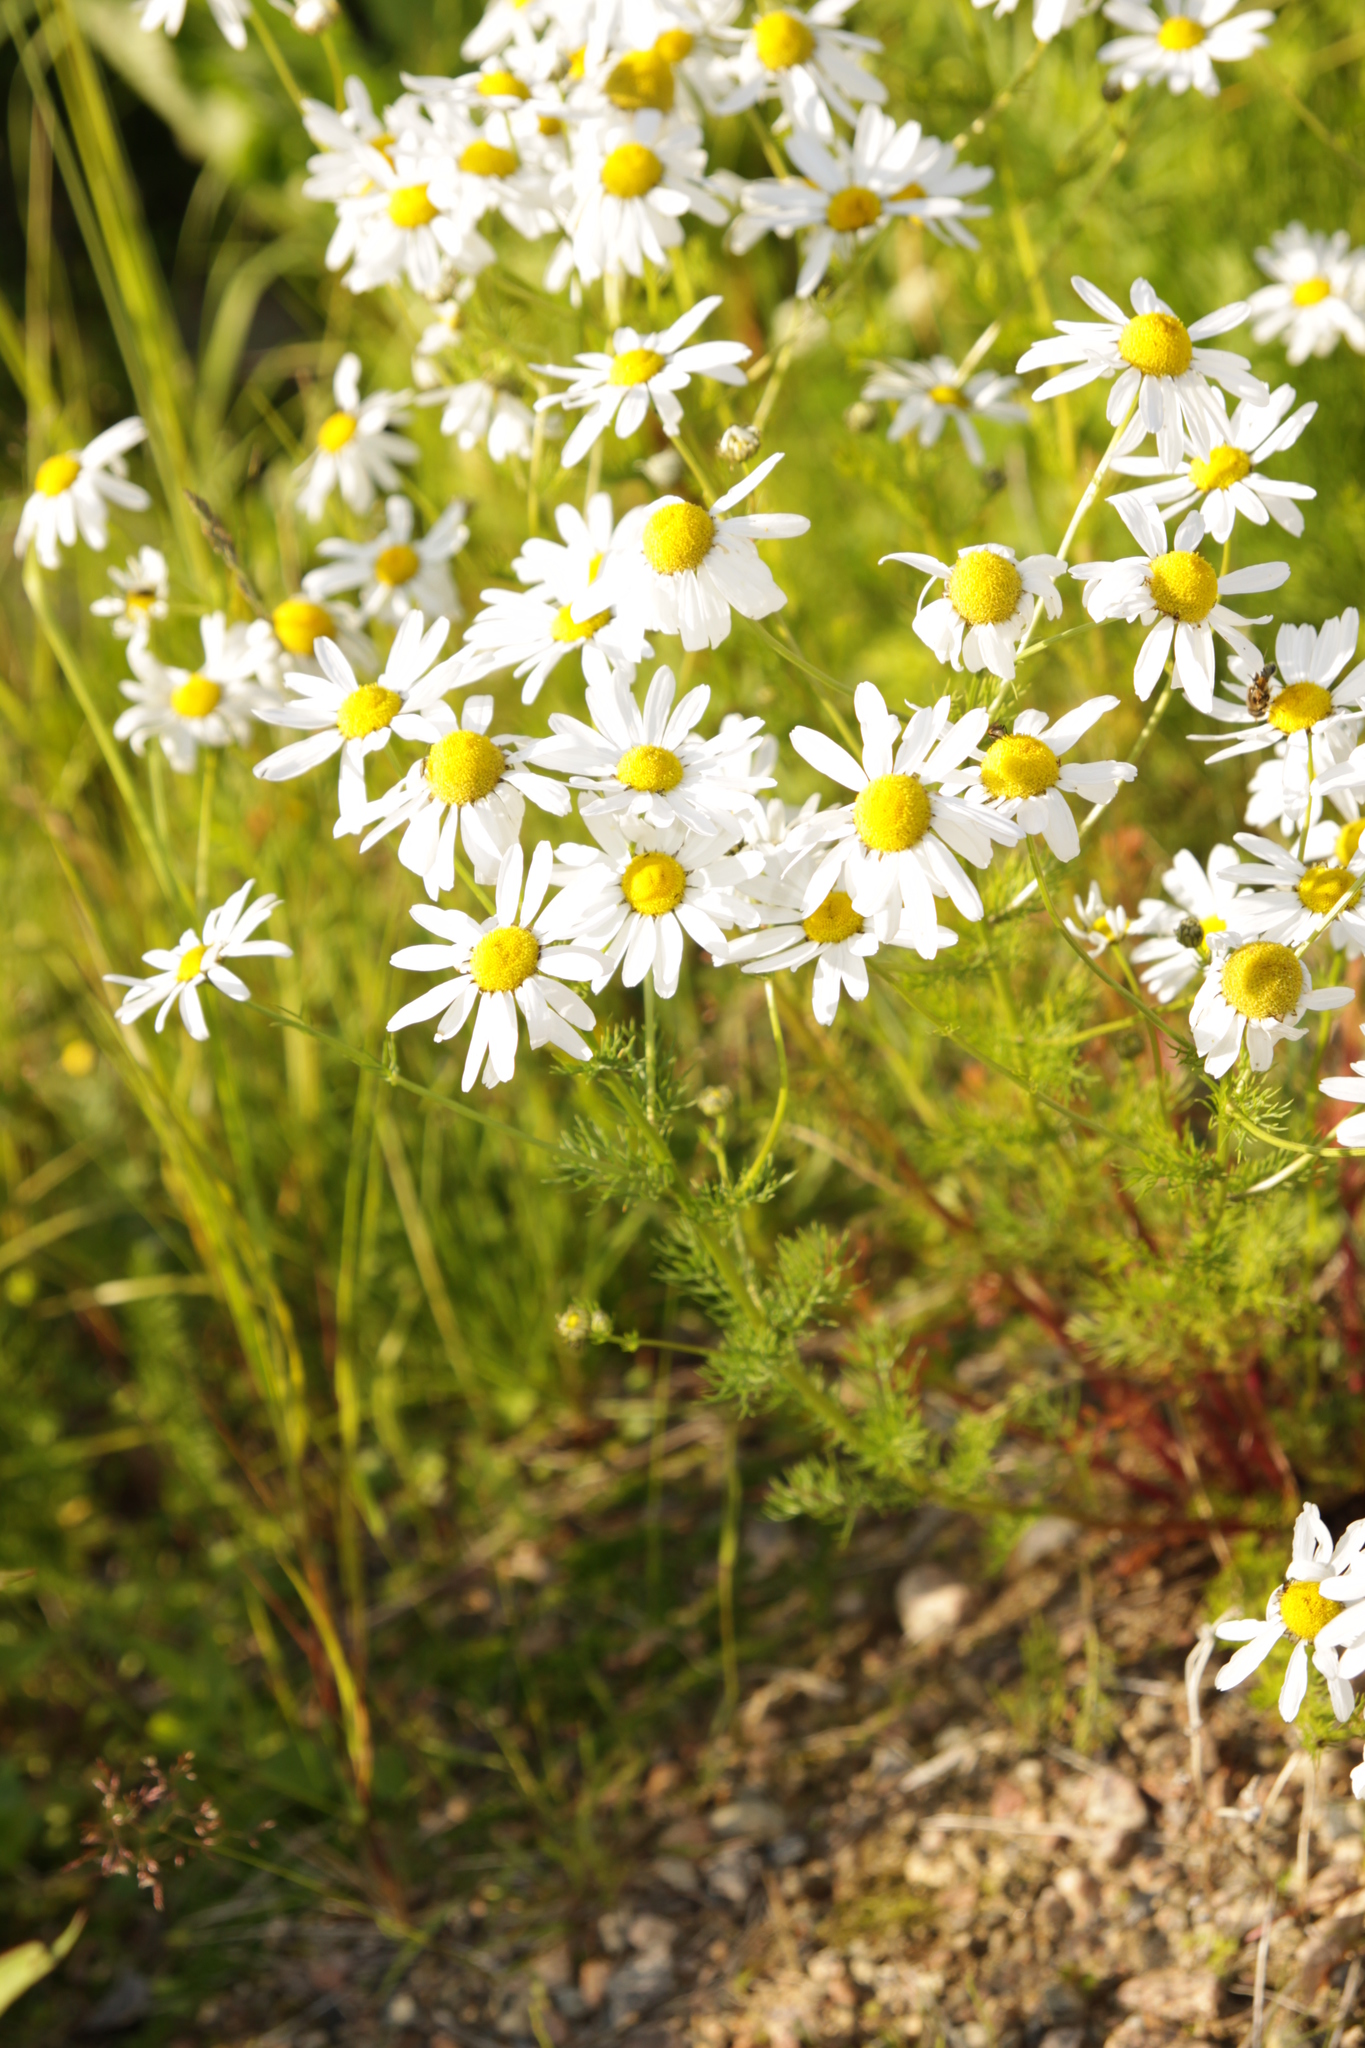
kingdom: Plantae
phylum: Tracheophyta
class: Magnoliopsida
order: Asterales
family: Asteraceae
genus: Tripleurospermum
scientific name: Tripleurospermum inodorum
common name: Scentless mayweed
